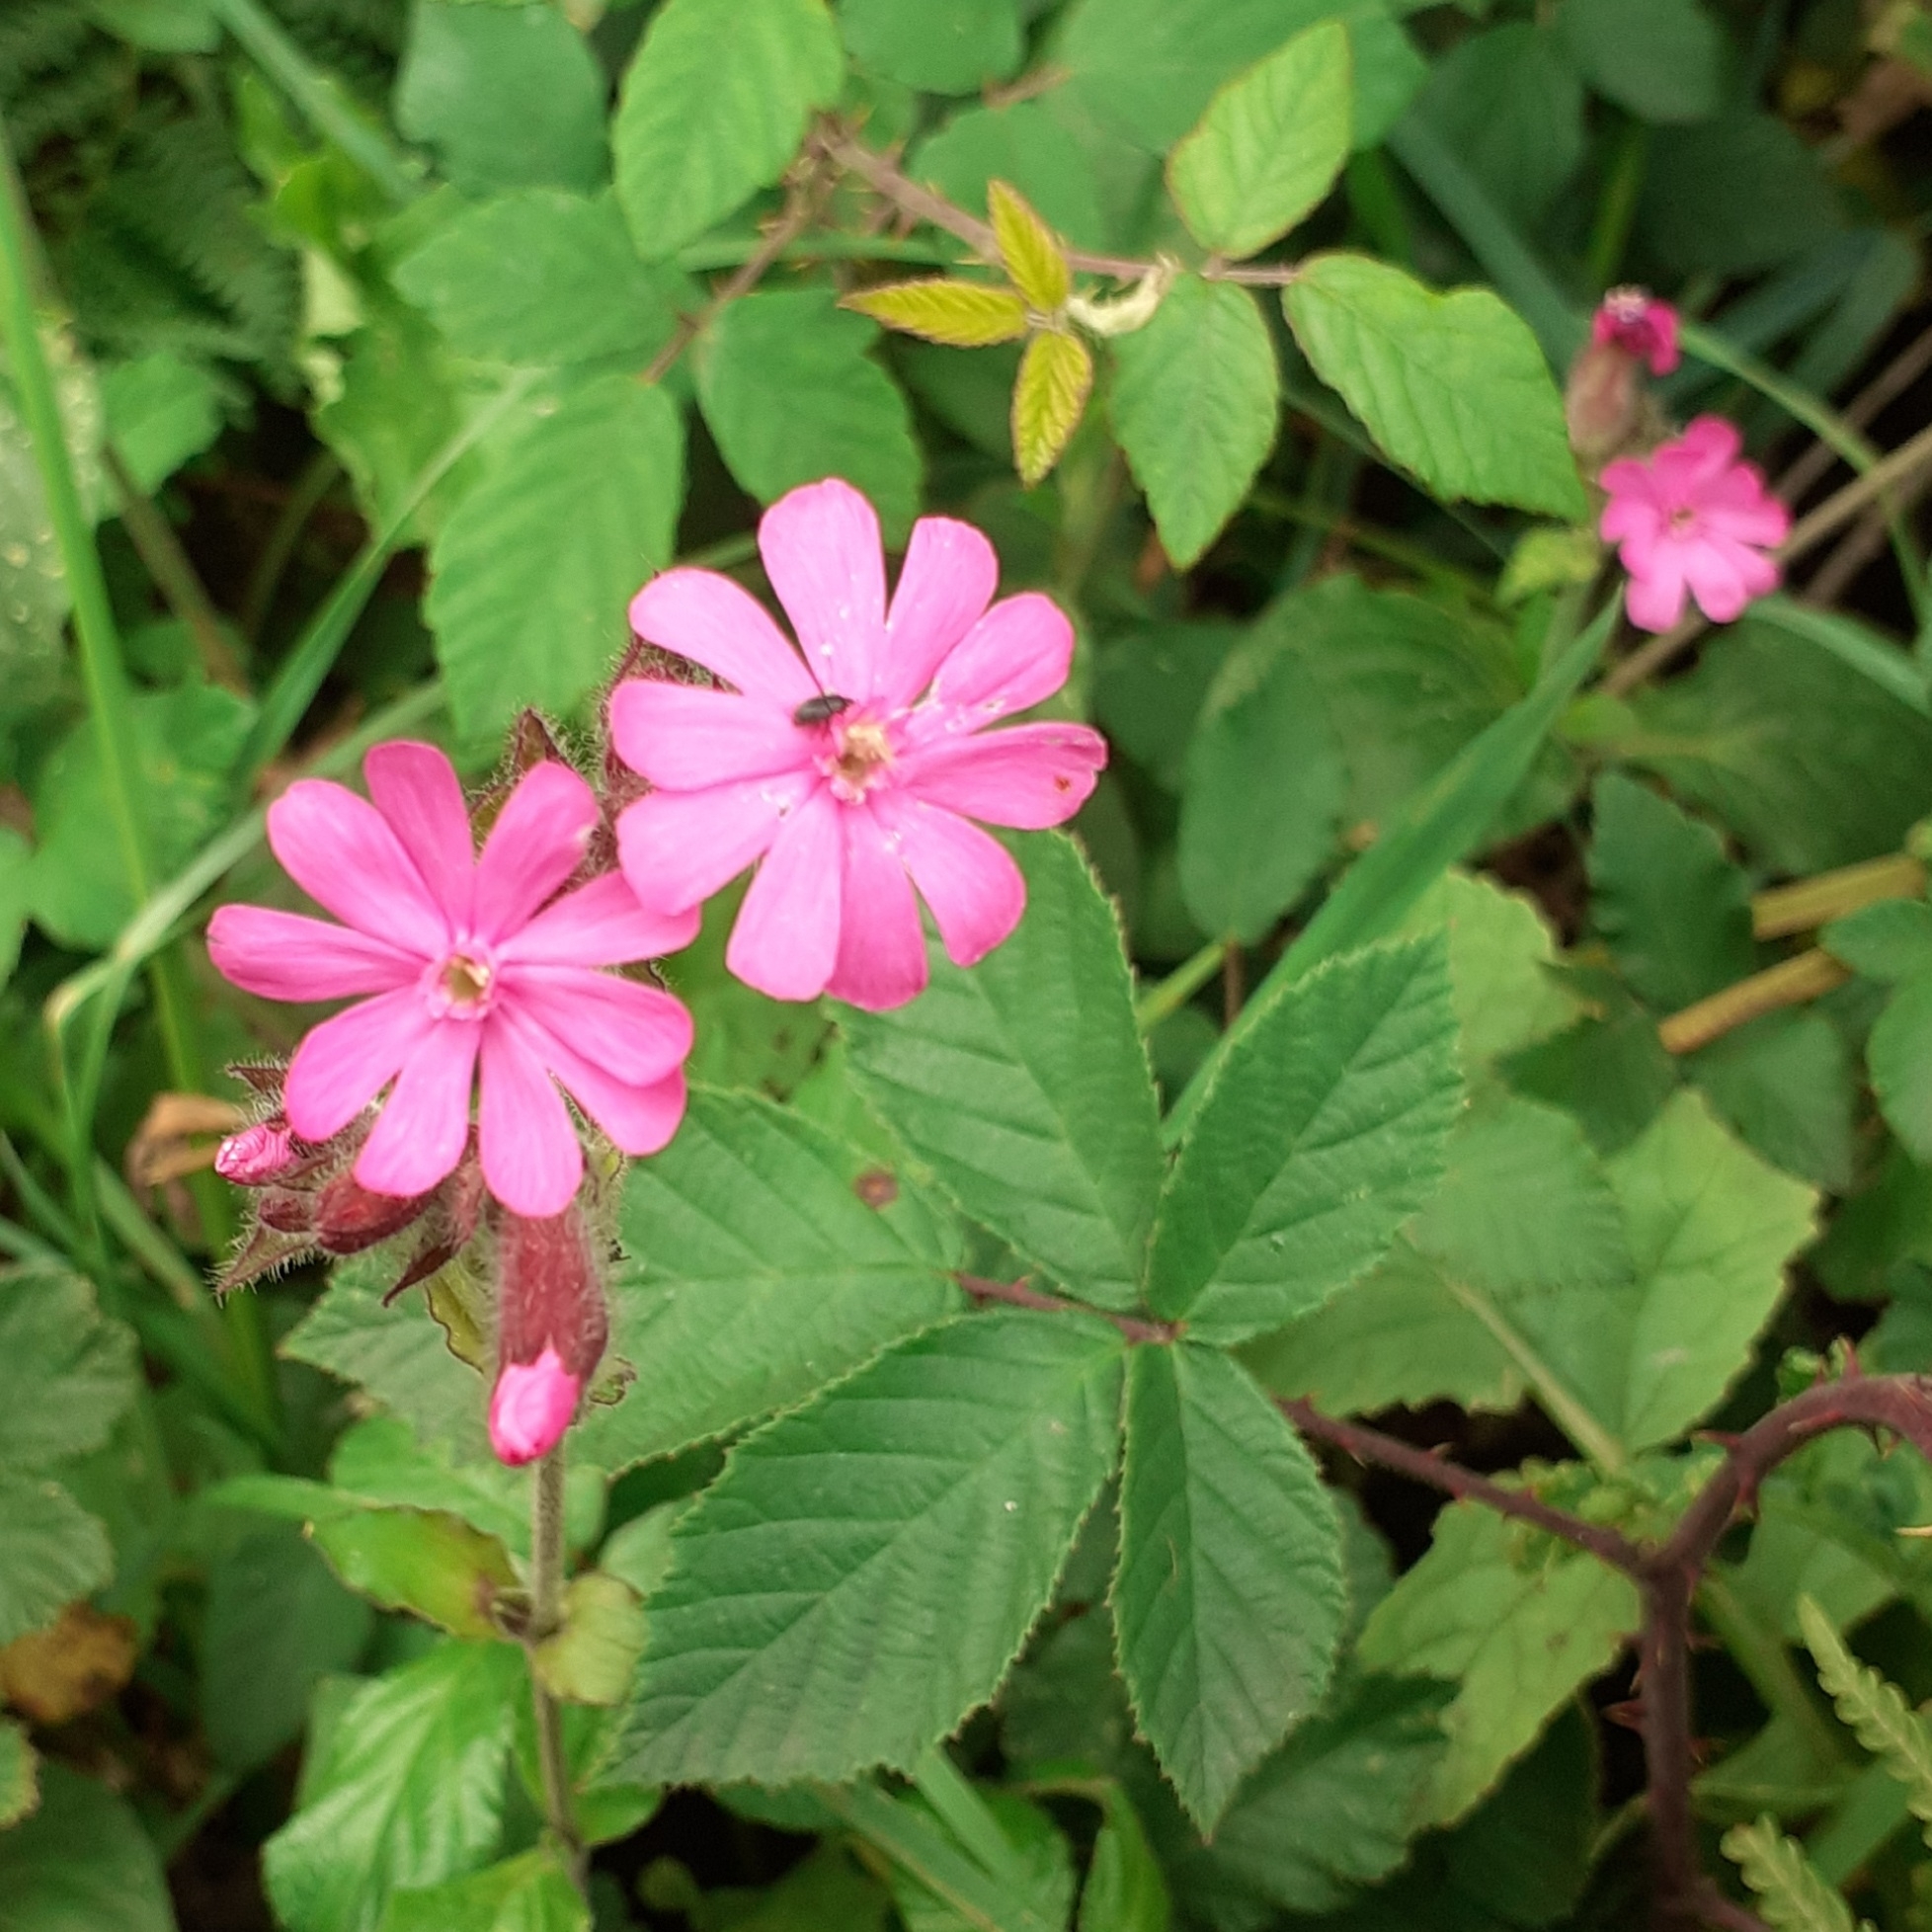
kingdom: Plantae
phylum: Tracheophyta
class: Magnoliopsida
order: Caryophyllales
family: Caryophyllaceae
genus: Silene
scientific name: Silene dioica
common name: Red campion
